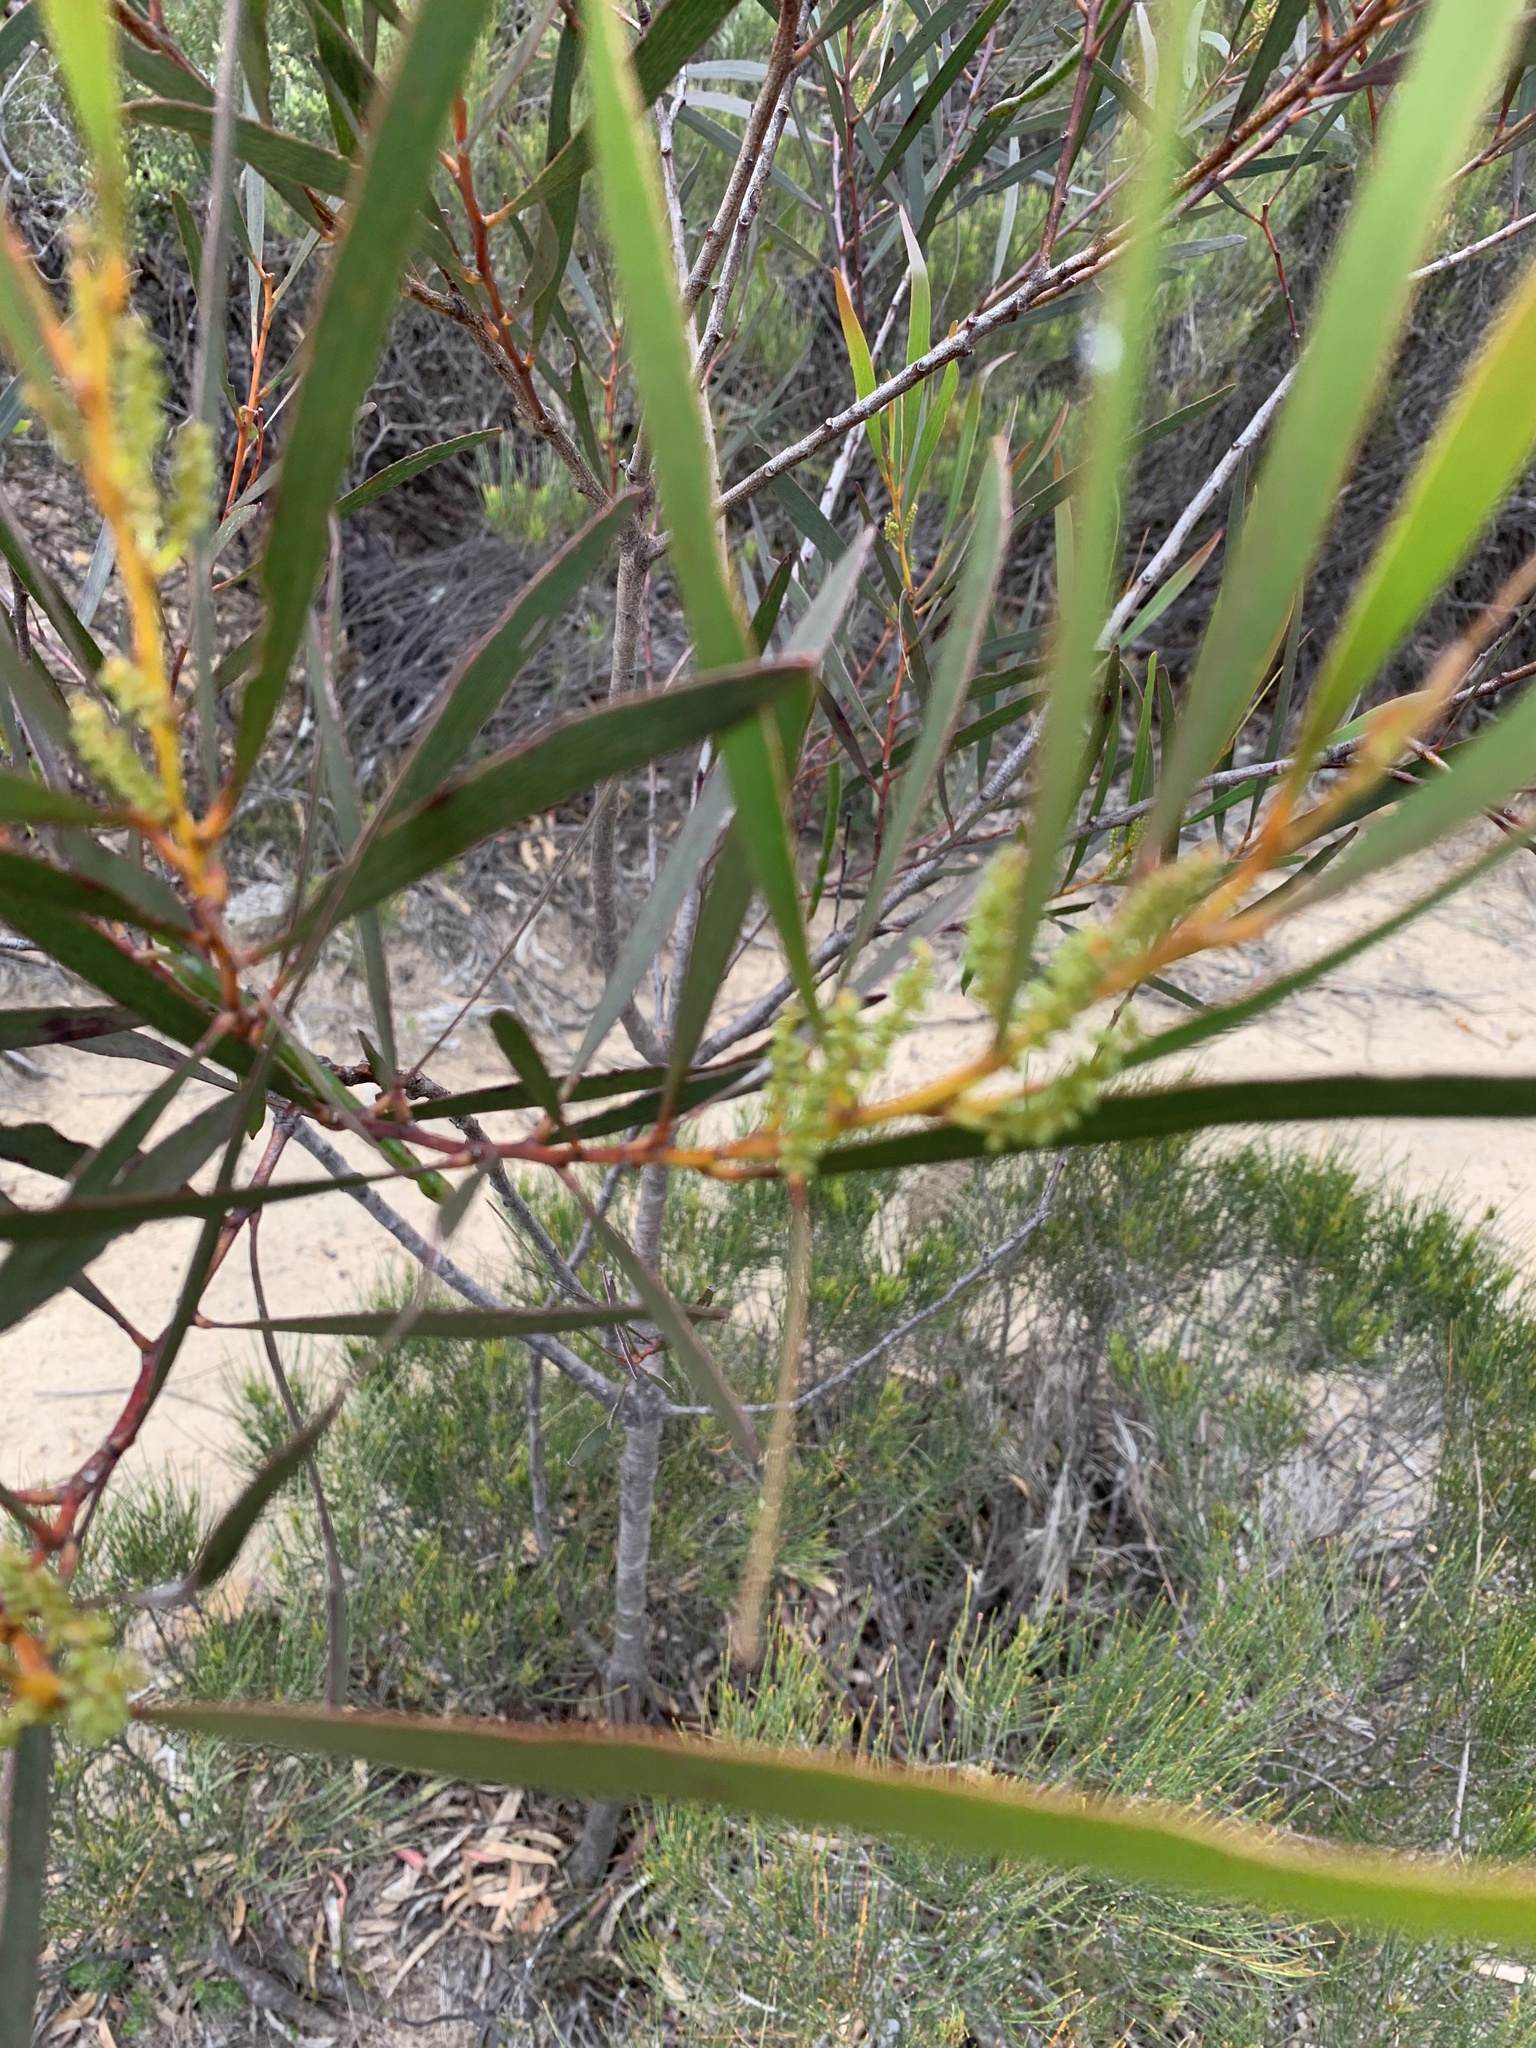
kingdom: Plantae
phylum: Tracheophyta
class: Magnoliopsida
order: Fabales
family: Fabaceae
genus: Acacia
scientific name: Acacia obtusifolia
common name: Stiff-leaf wattle
